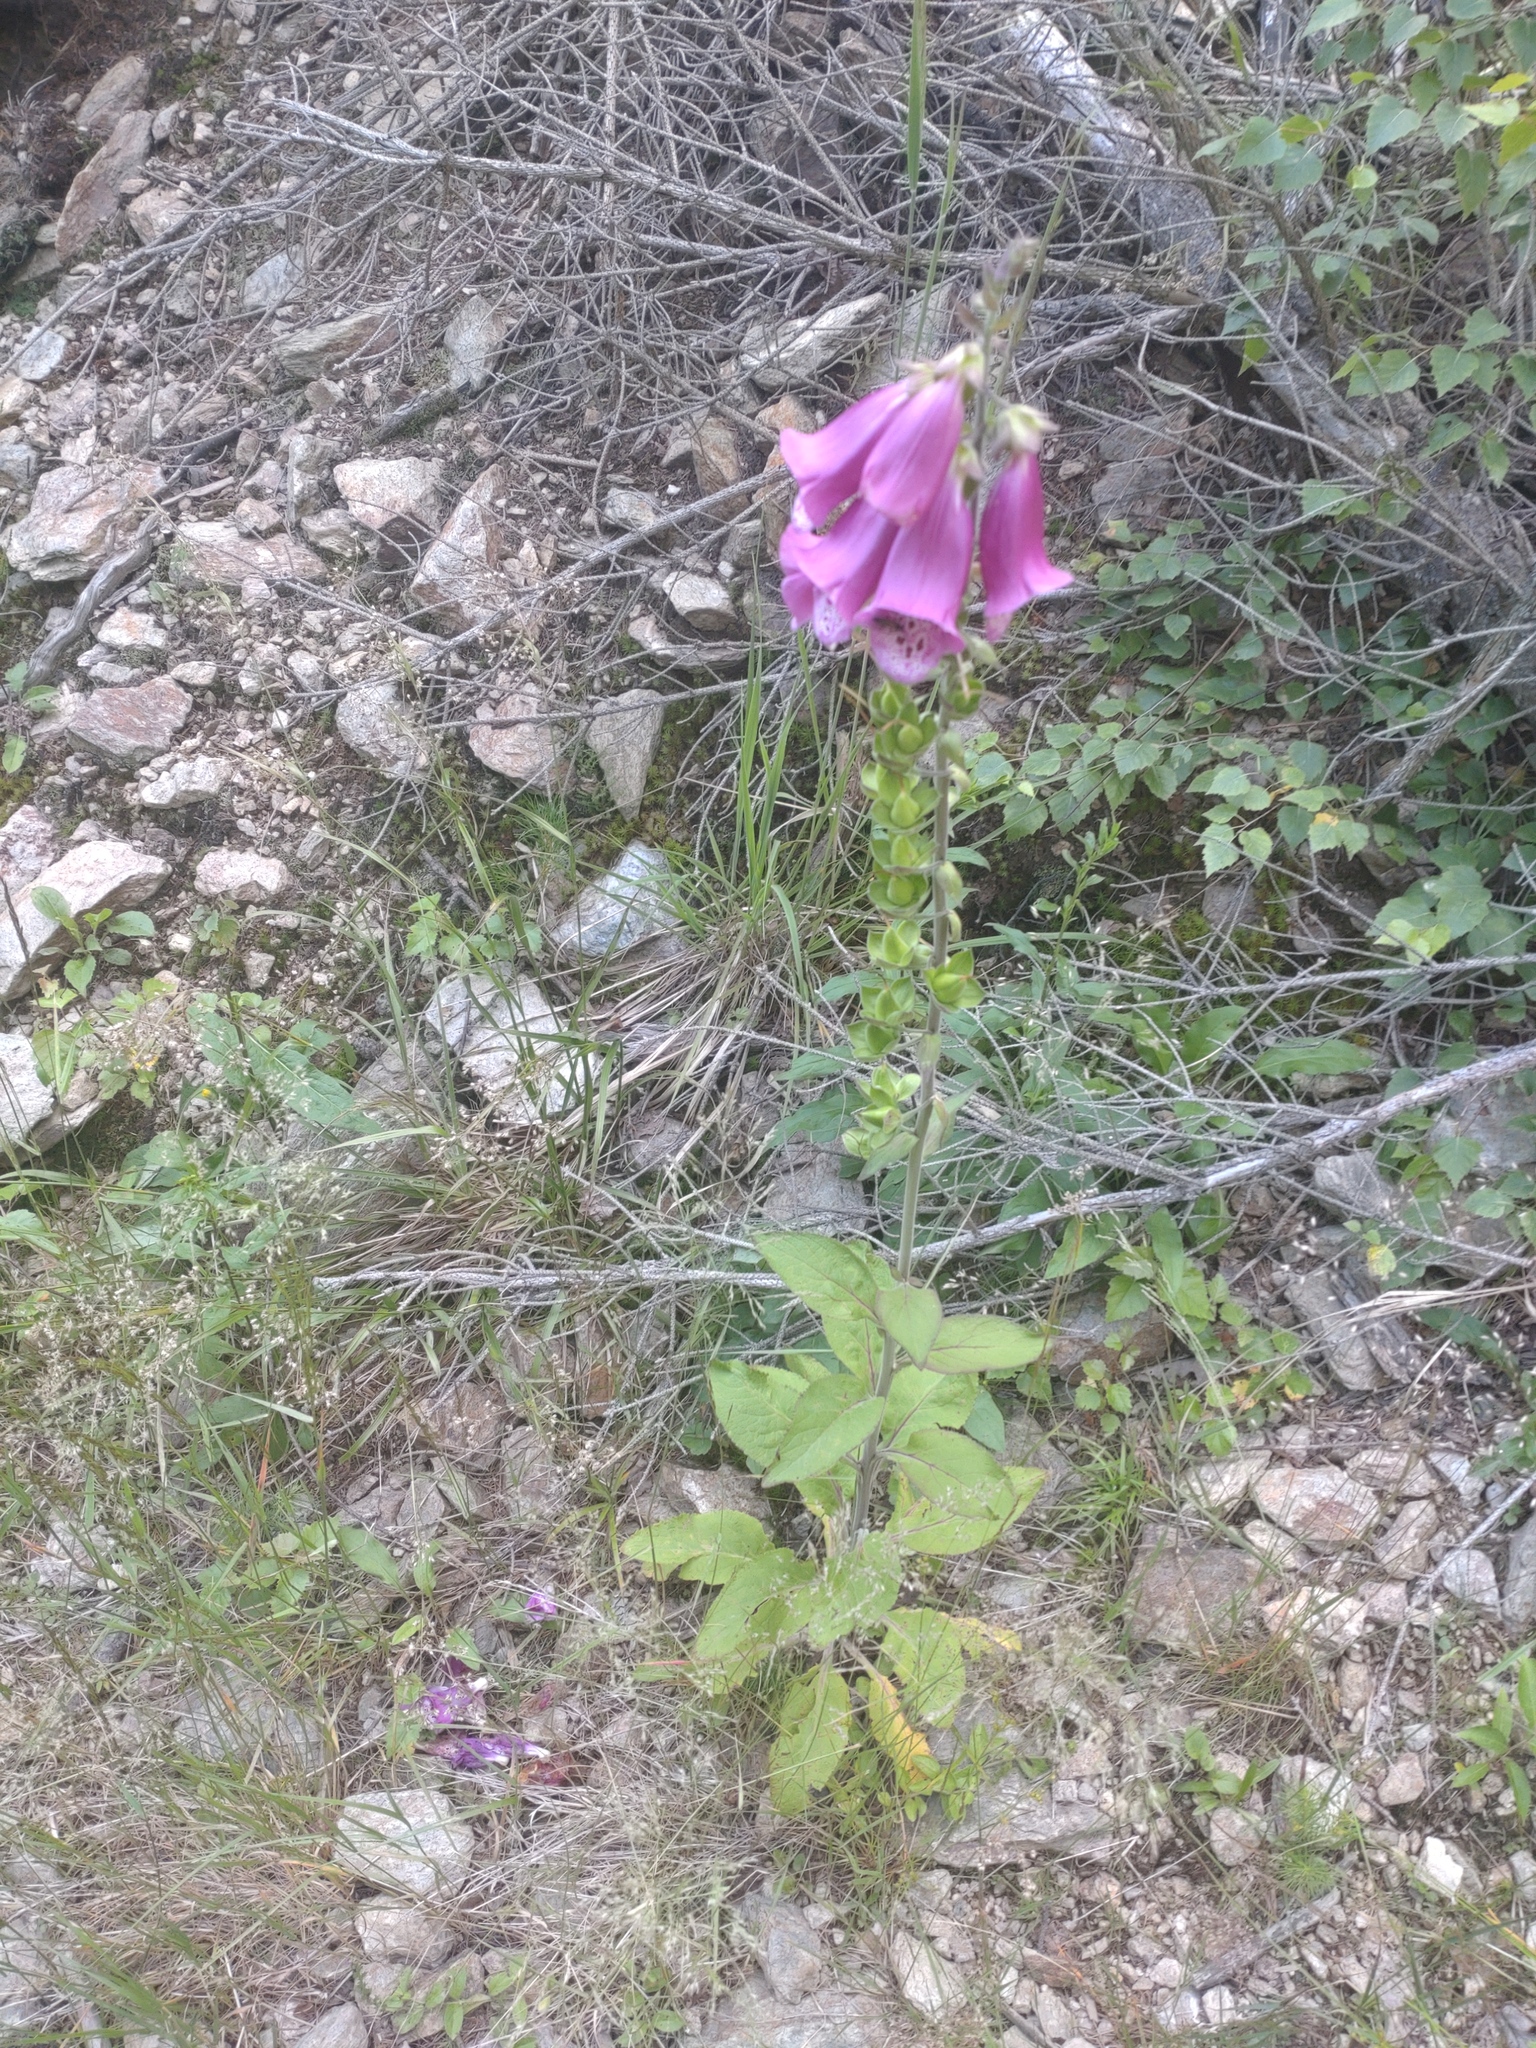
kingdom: Plantae
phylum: Tracheophyta
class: Magnoliopsida
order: Lamiales
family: Plantaginaceae
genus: Digitalis
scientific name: Digitalis purpurea
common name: Foxglove
